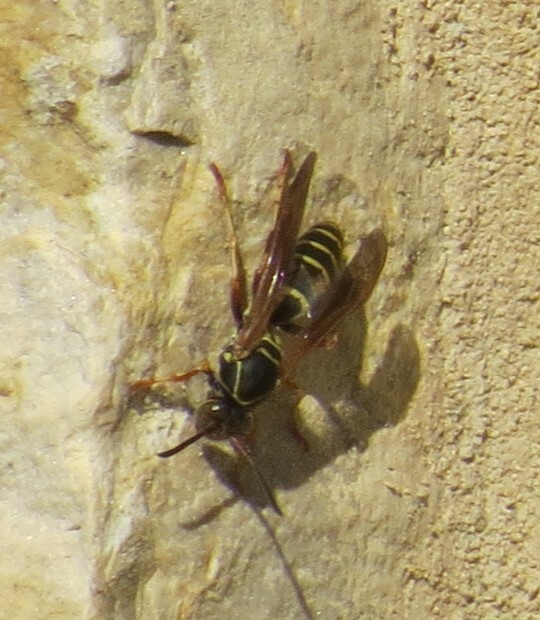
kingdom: Animalia
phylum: Arthropoda
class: Insecta
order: Hymenoptera
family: Eumenidae
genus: Polistes
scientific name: Polistes fuscatus
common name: Dark paper wasp
